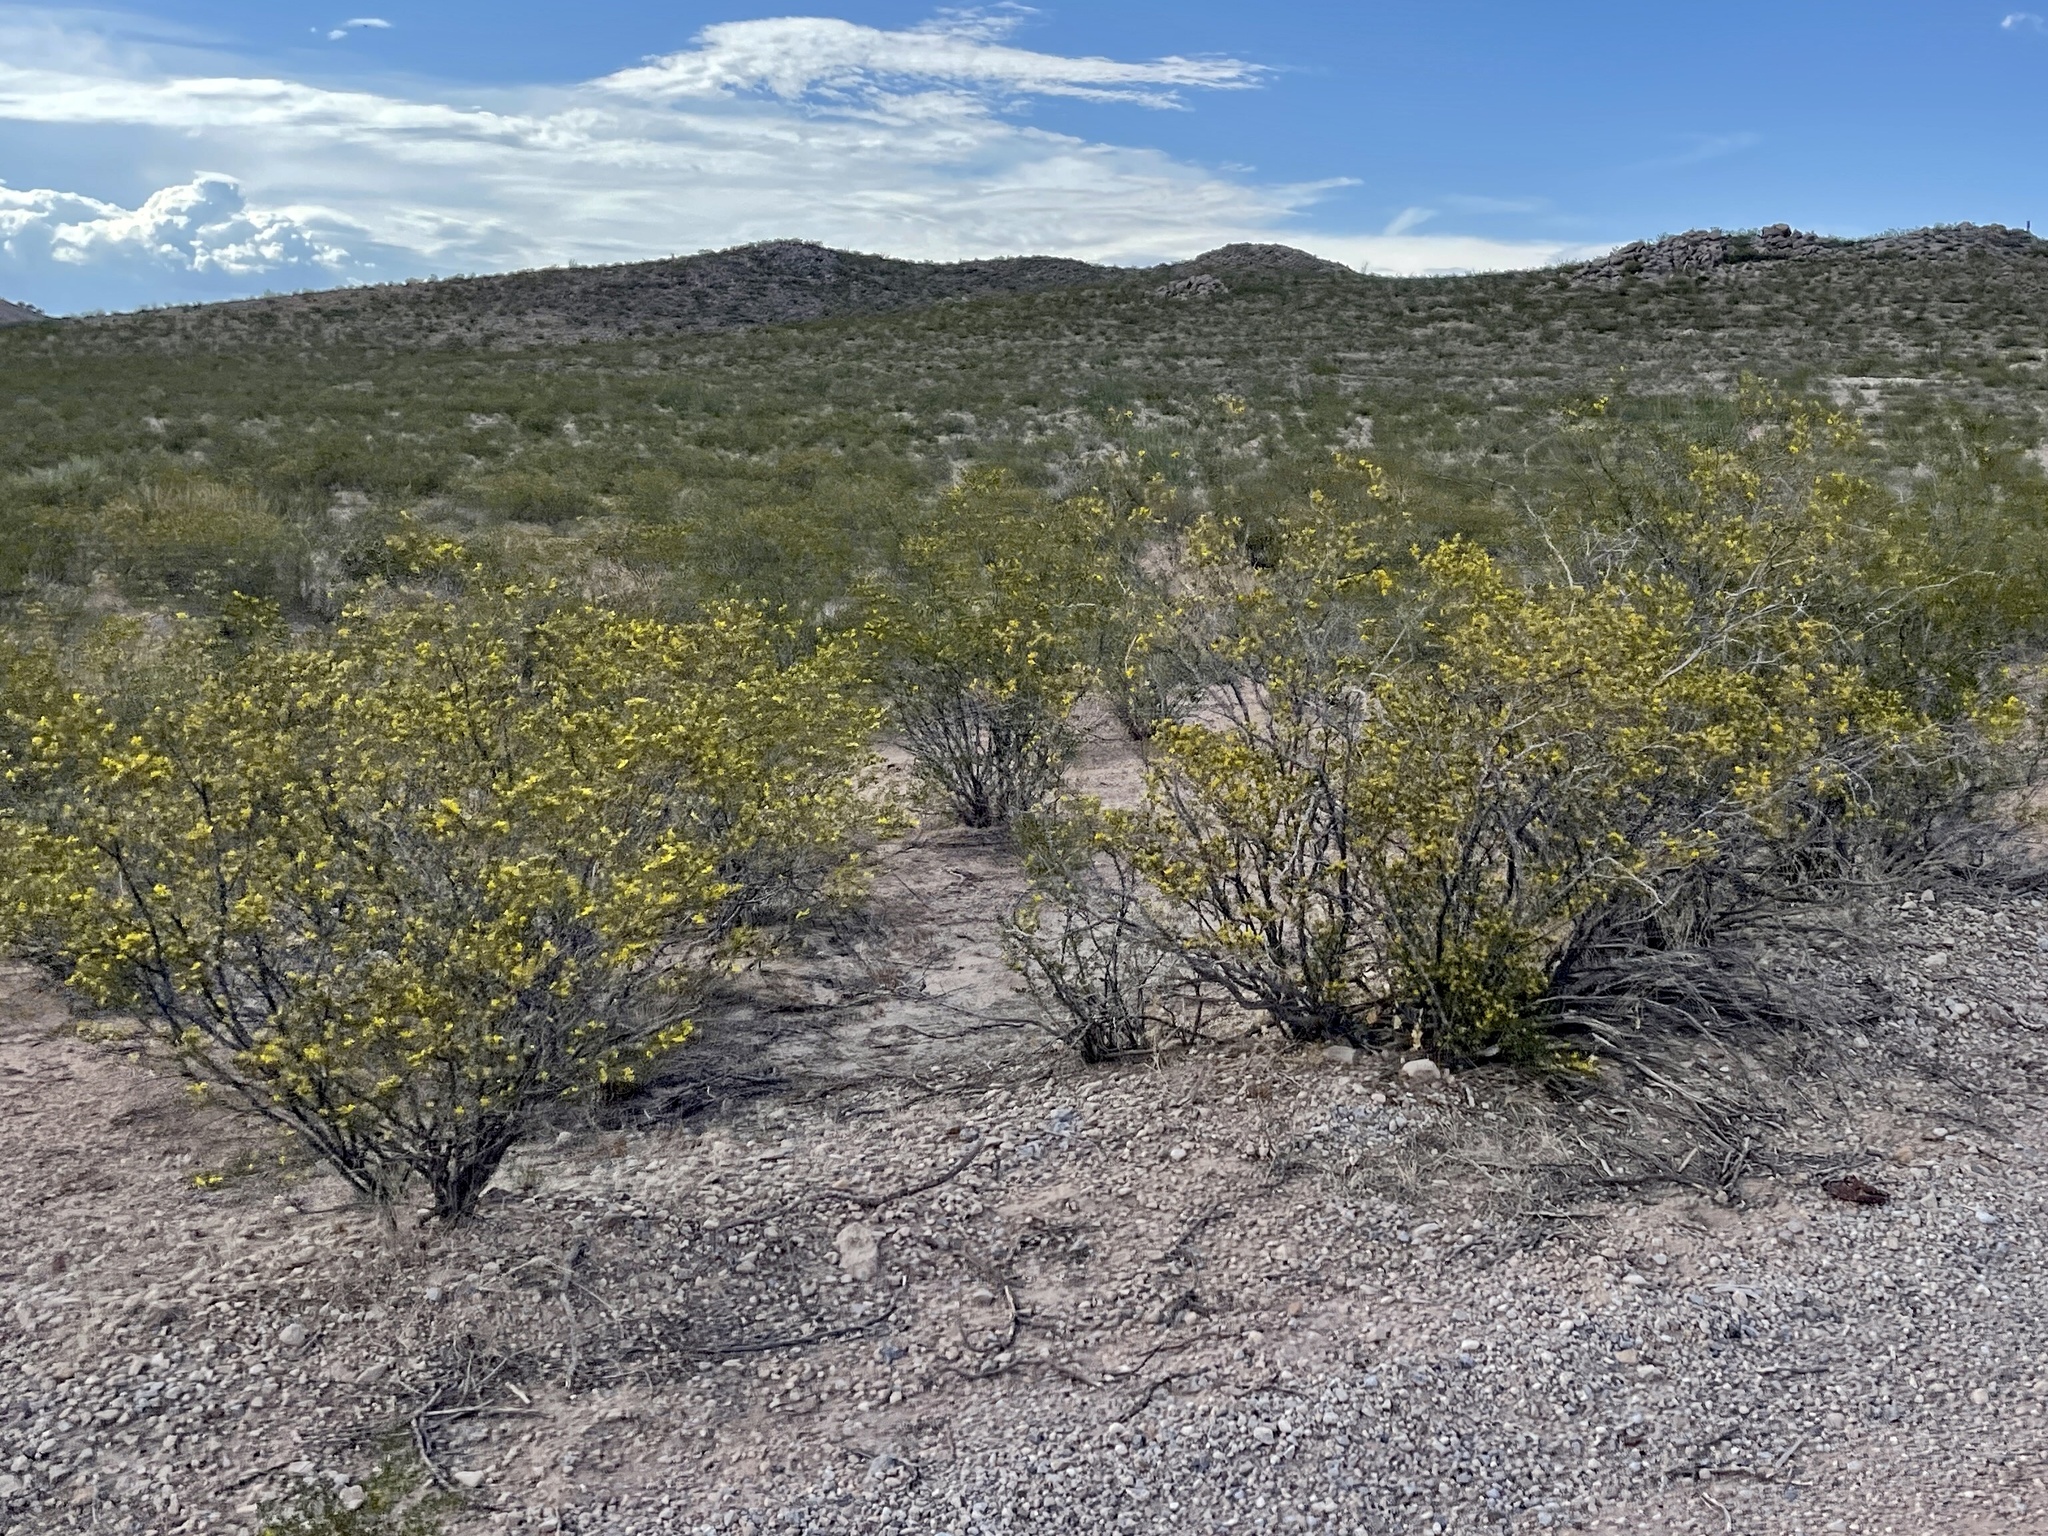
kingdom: Plantae
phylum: Tracheophyta
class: Magnoliopsida
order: Zygophyllales
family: Zygophyllaceae
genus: Larrea
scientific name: Larrea tridentata
